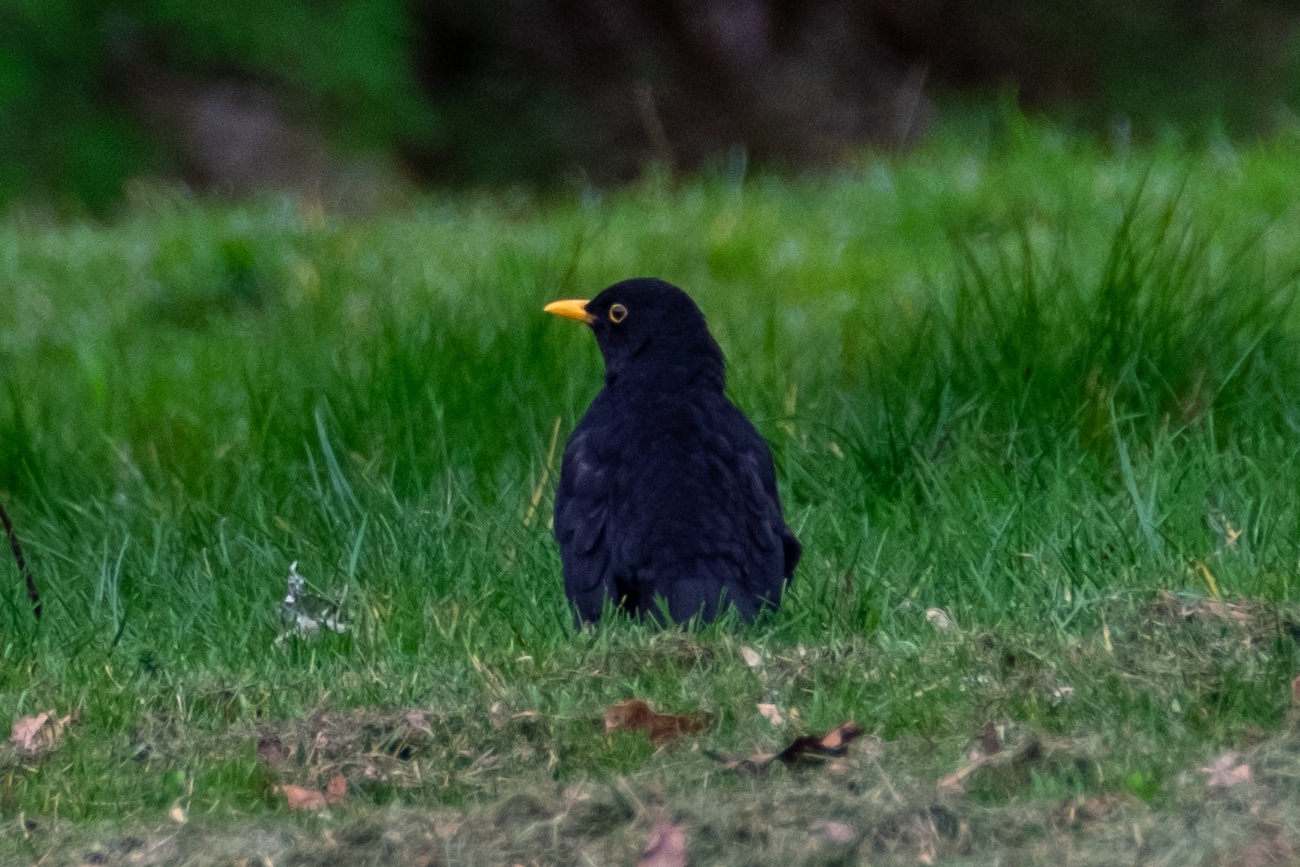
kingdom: Animalia
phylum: Chordata
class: Aves
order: Passeriformes
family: Turdidae
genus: Turdus
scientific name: Turdus merula
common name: Common blackbird
